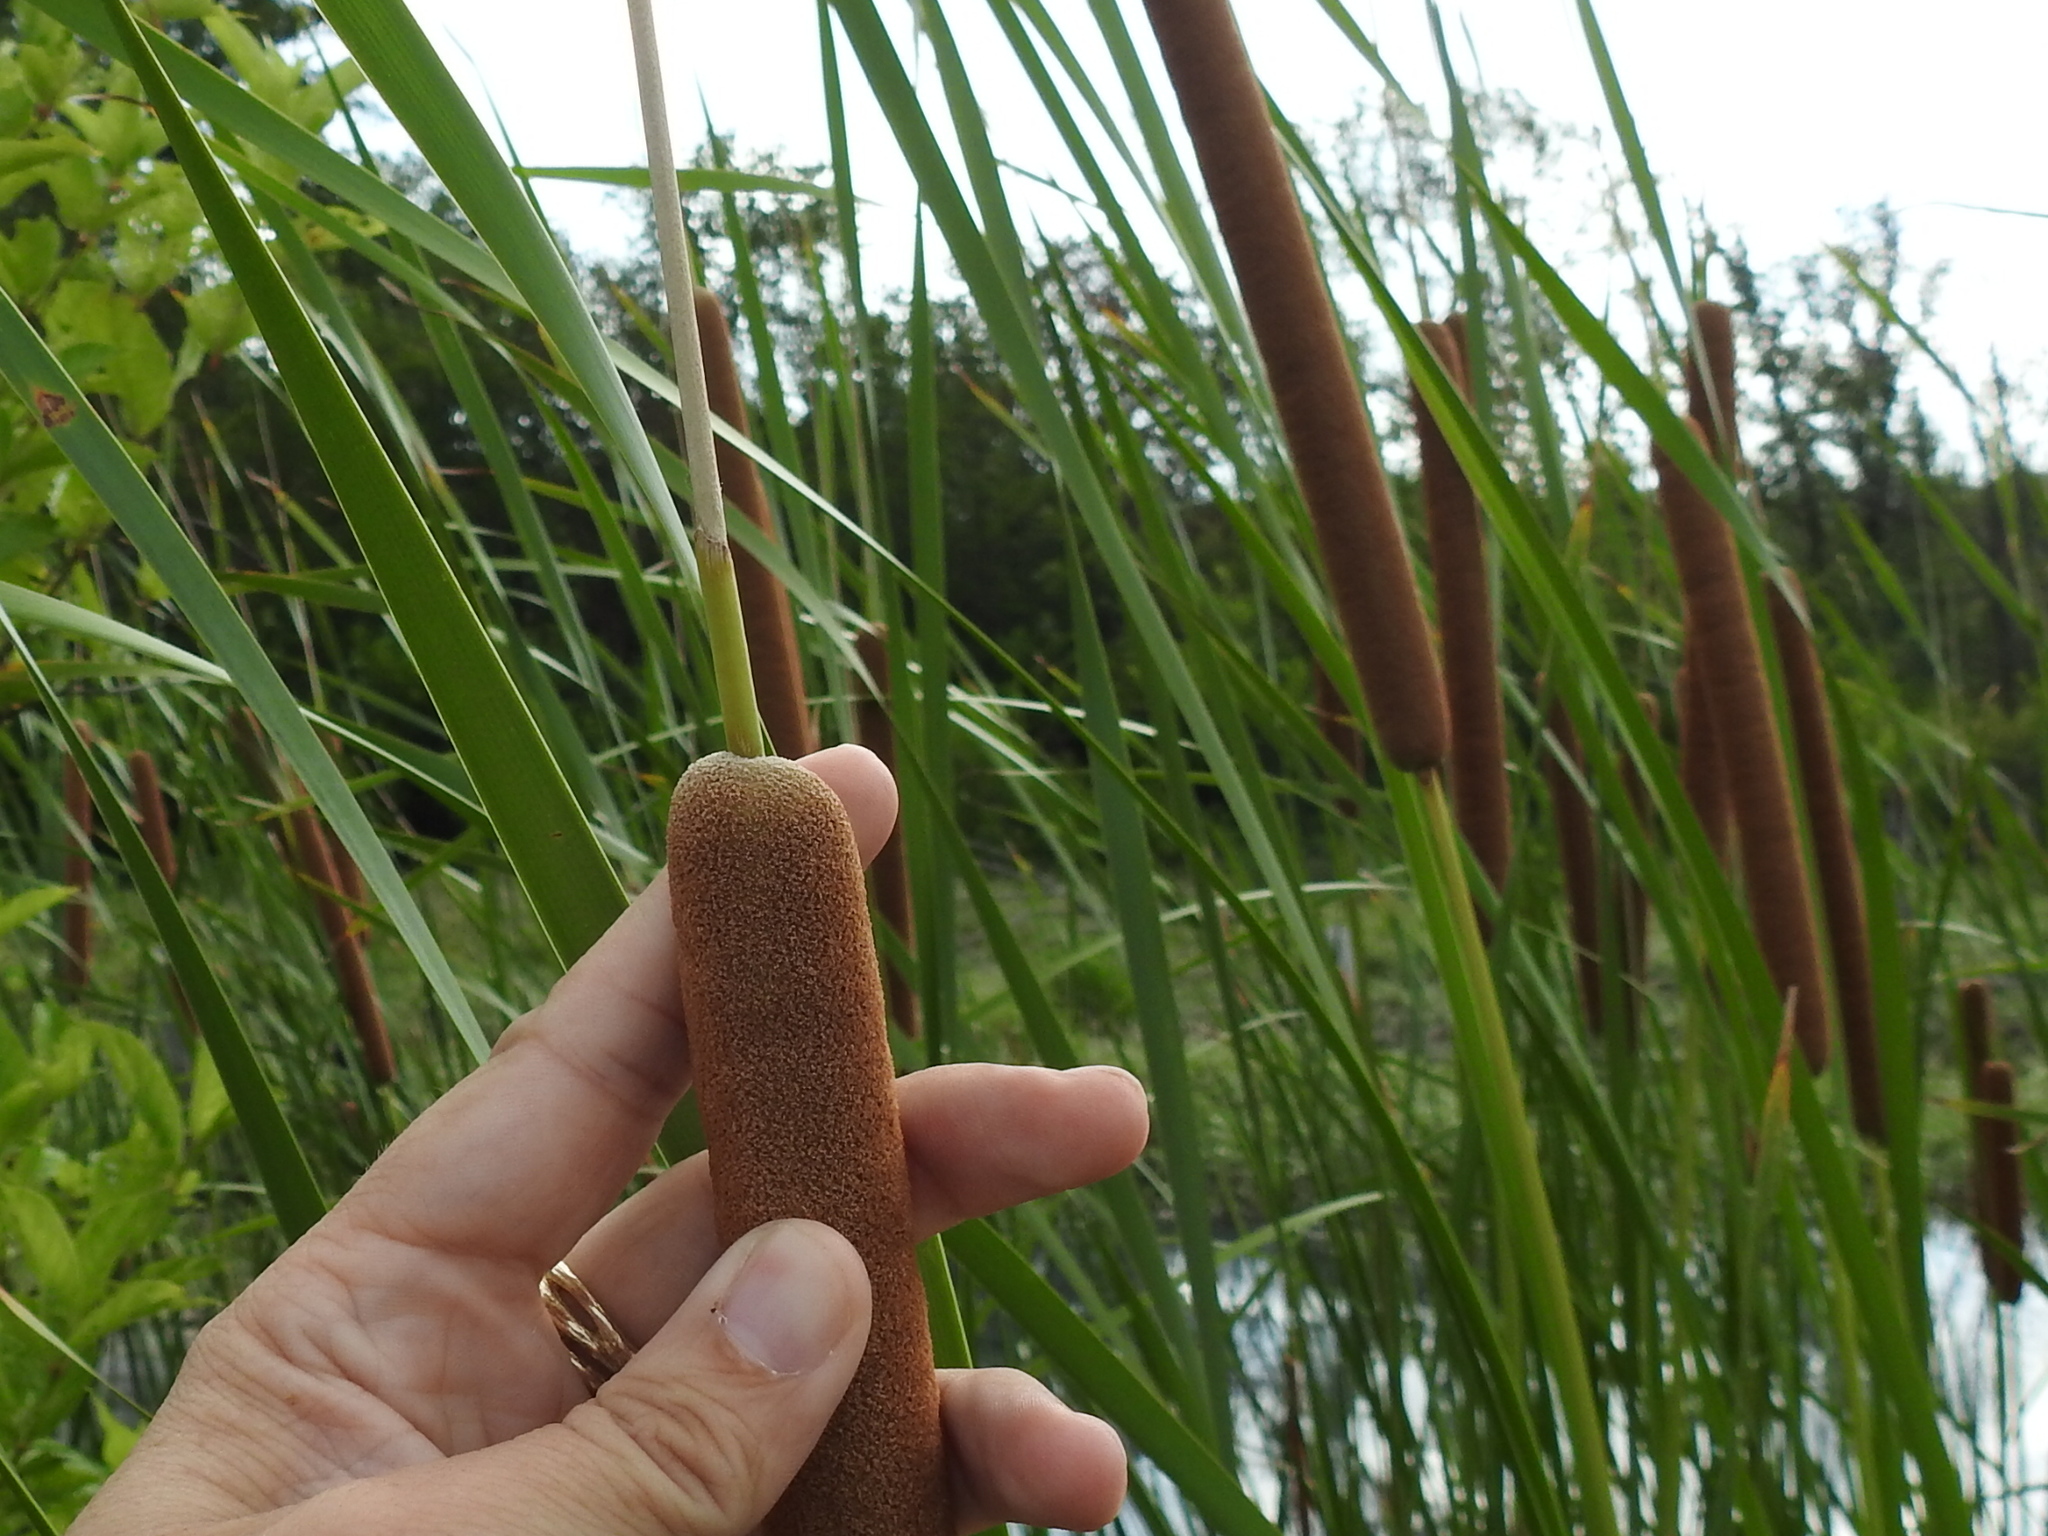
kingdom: Plantae
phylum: Tracheophyta
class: Liliopsida
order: Poales
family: Typhaceae
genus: Typha
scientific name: Typha domingensis
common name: Southern cattail
